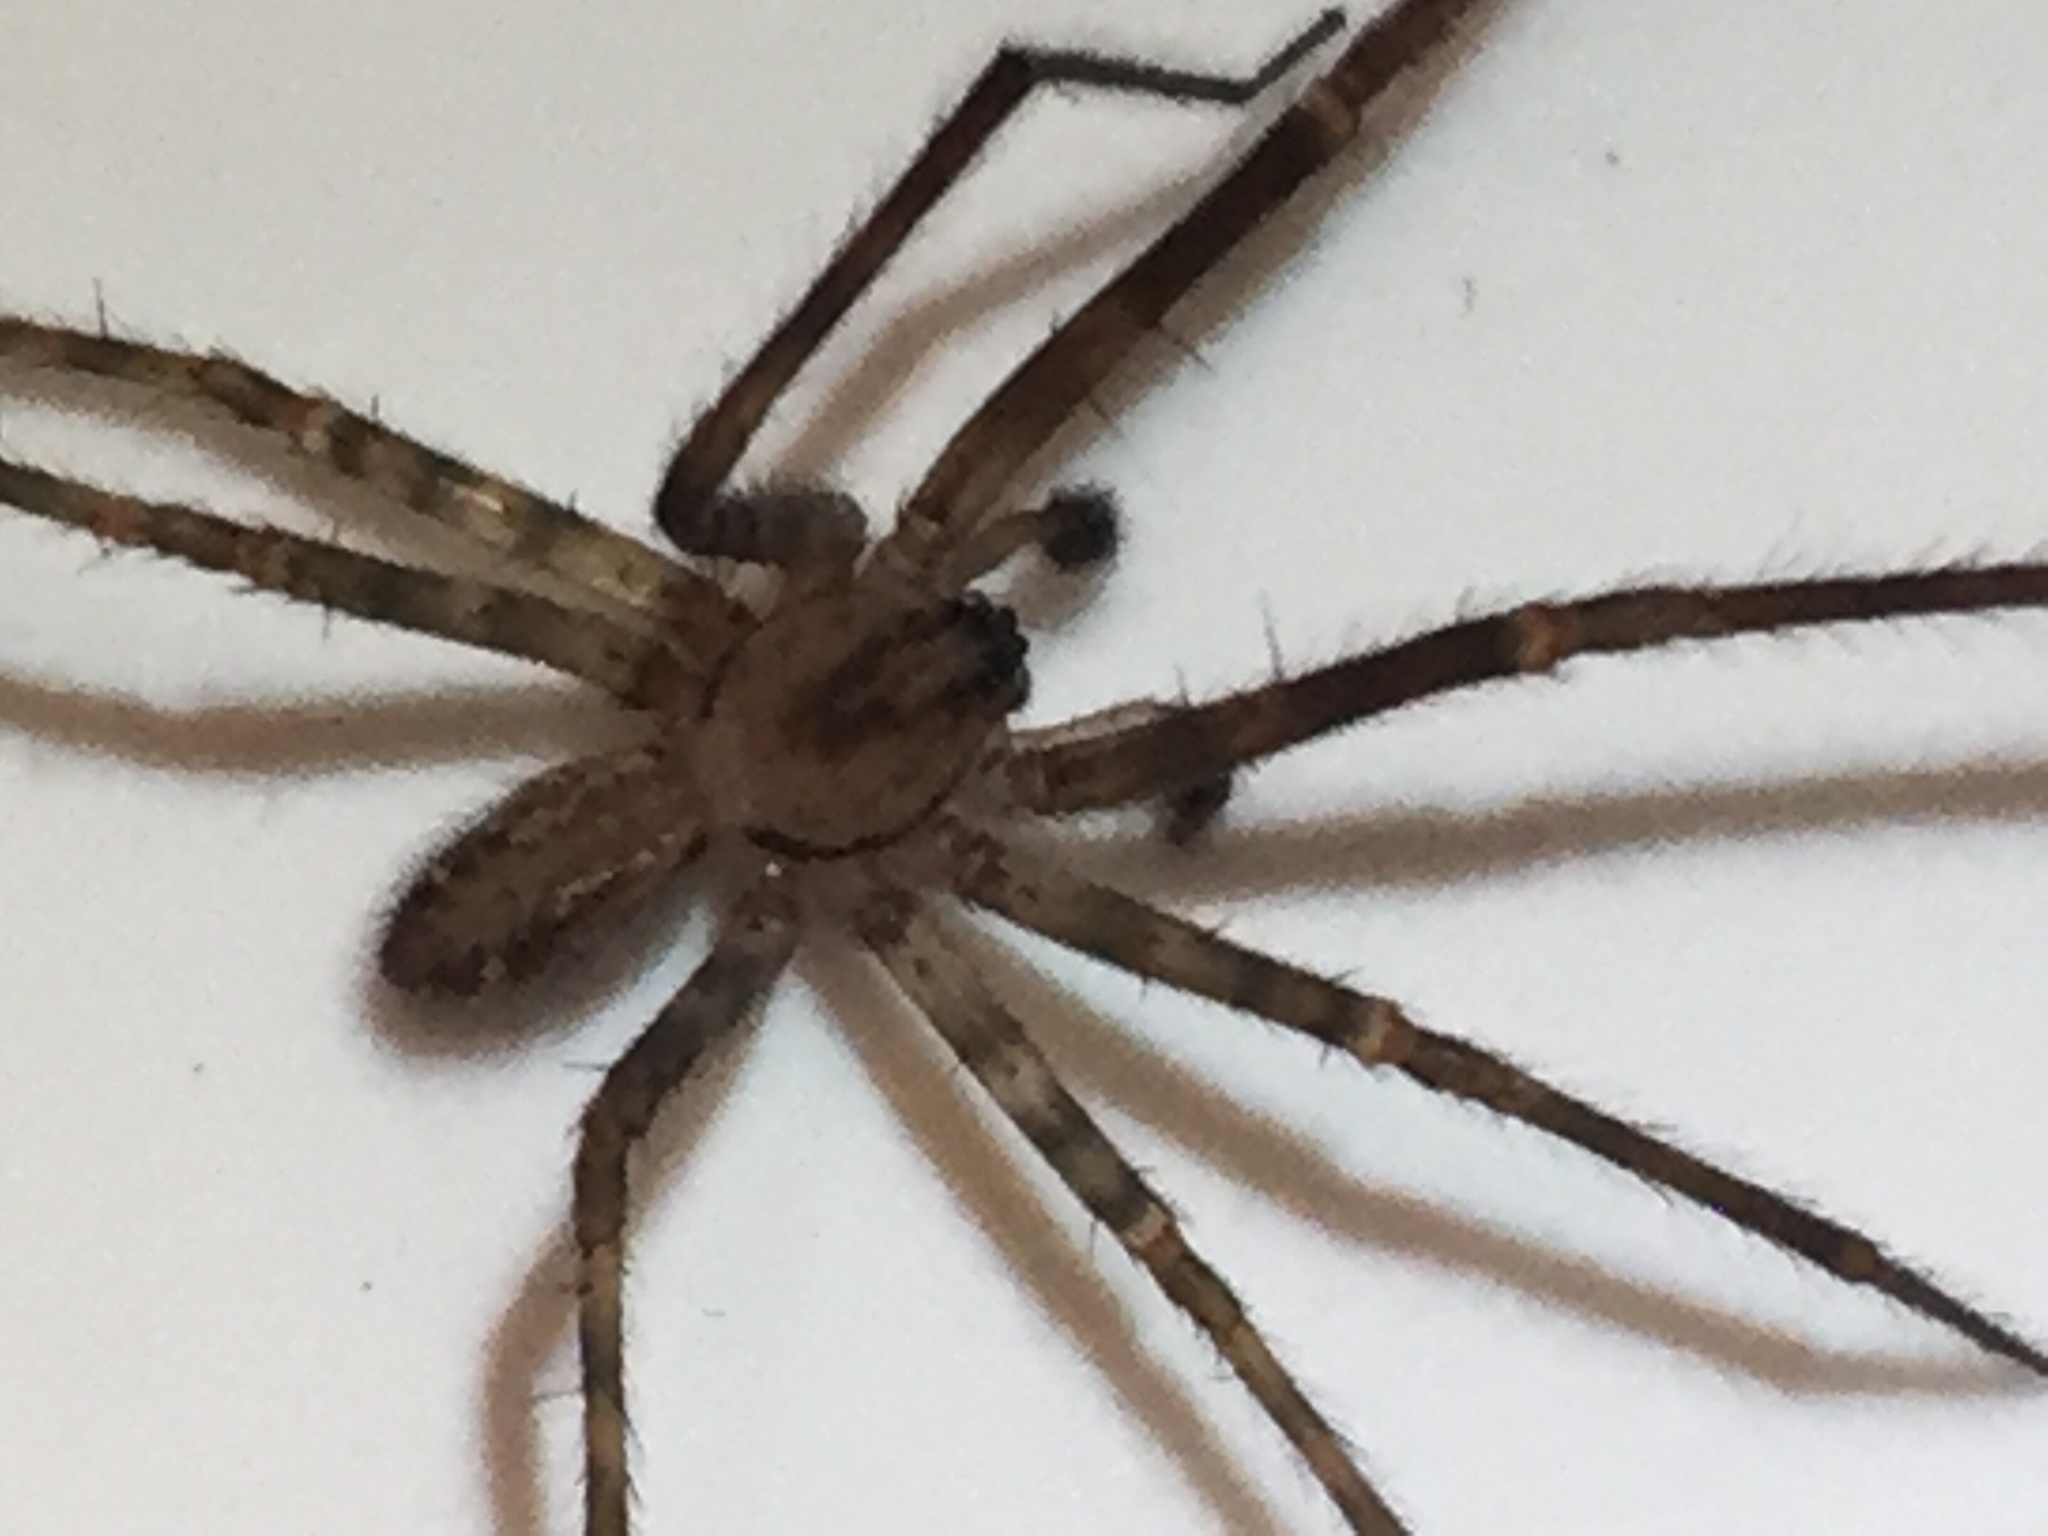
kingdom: Animalia
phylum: Arthropoda
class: Arachnida
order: Araneae
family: Stiphidiidae
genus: Stiphidion
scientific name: Stiphidion facetum
